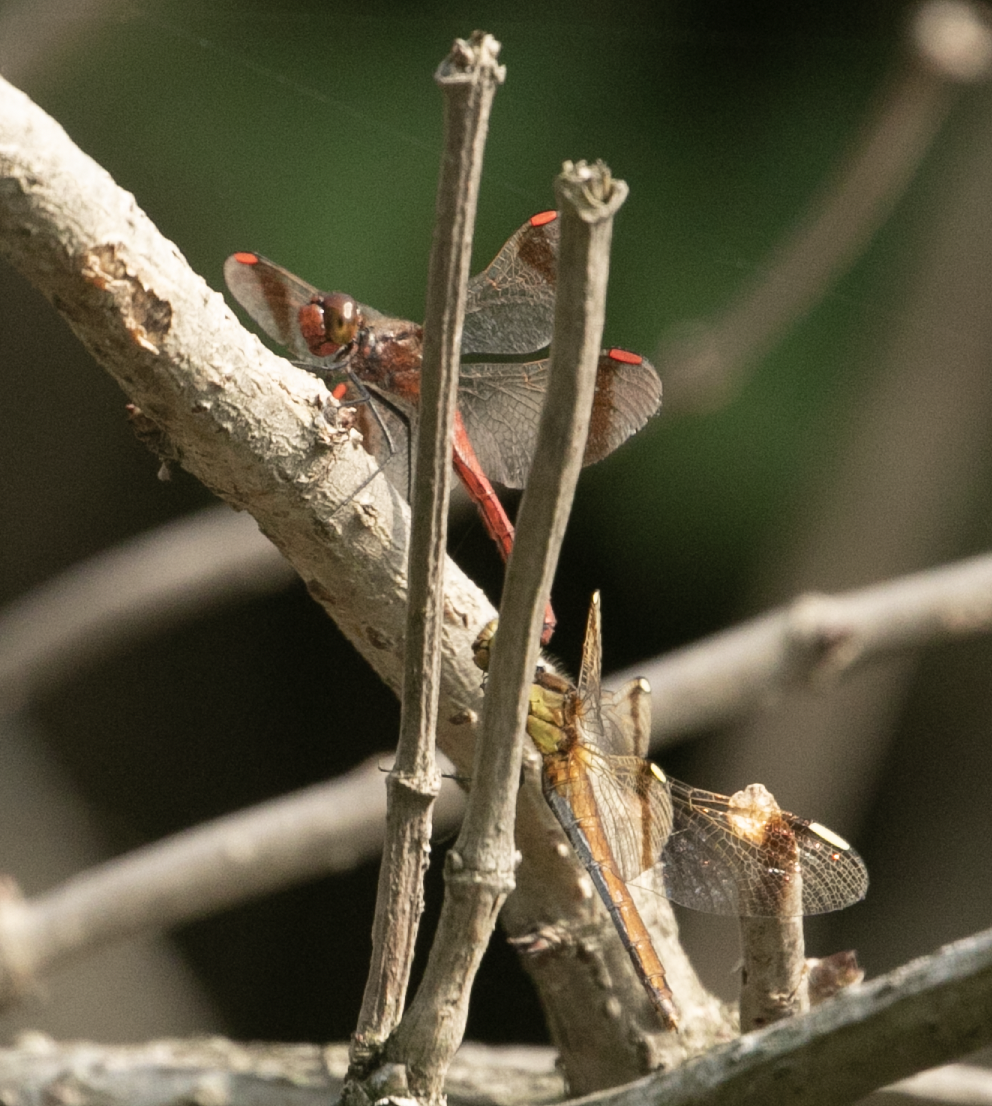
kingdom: Animalia
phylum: Arthropoda
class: Insecta
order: Odonata
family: Libellulidae
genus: Sympetrum
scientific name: Sympetrum pedemontanum
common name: Banded darter
